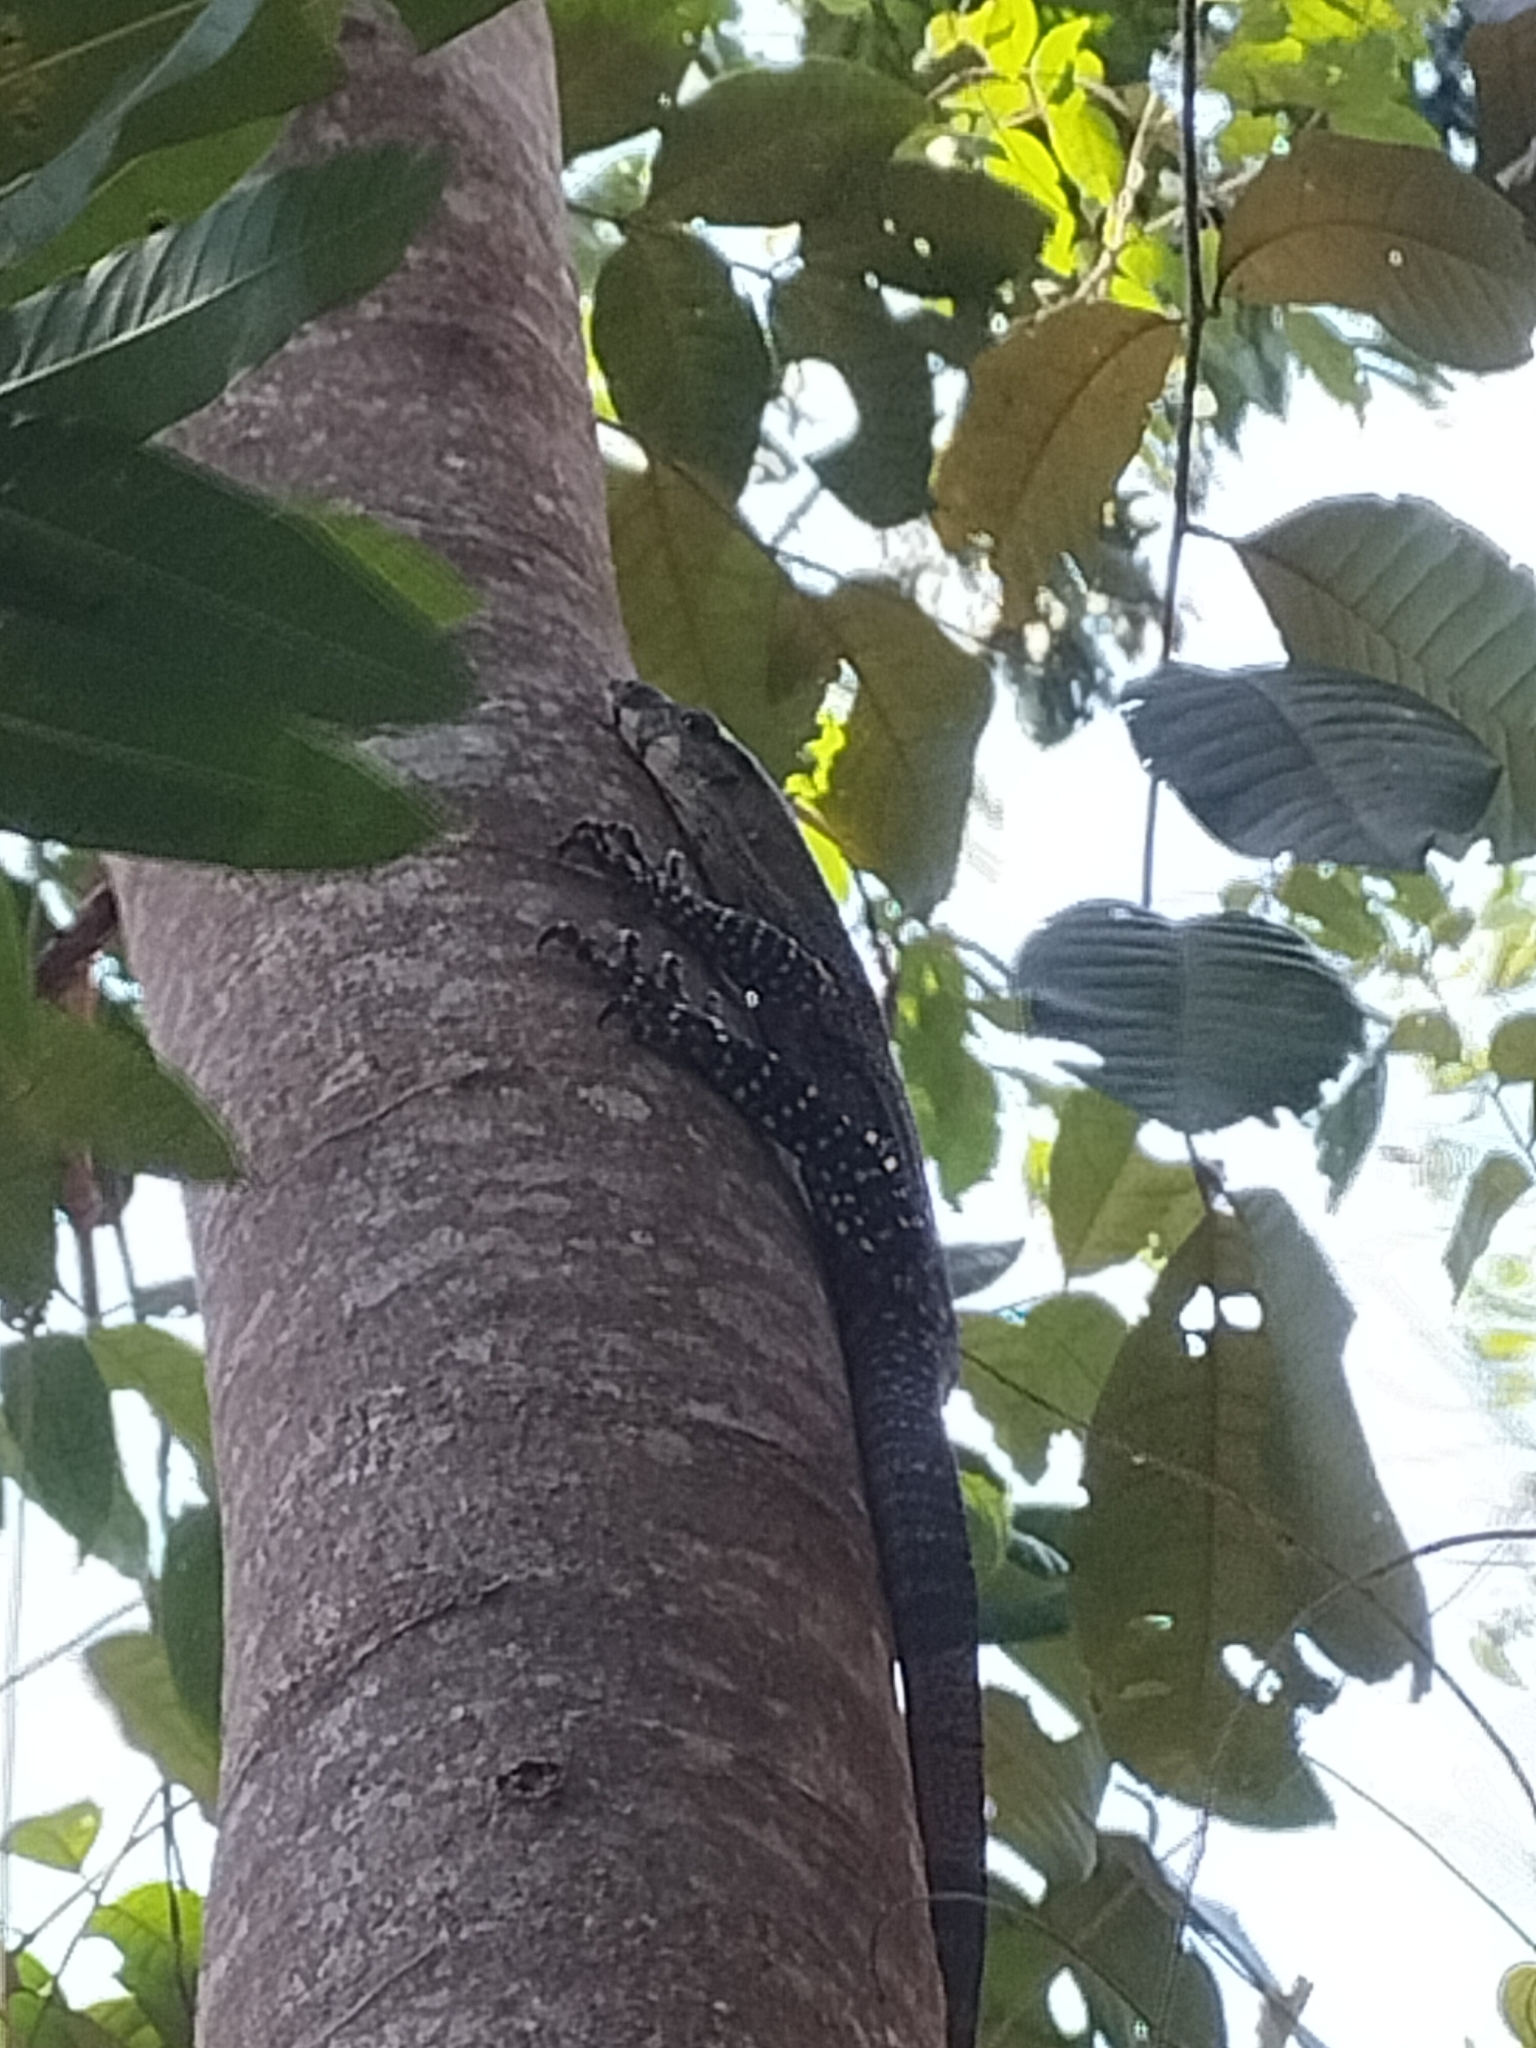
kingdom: Animalia
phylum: Chordata
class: Squamata
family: Varanidae
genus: Varanus
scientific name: Varanus varius
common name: Lace monitor
